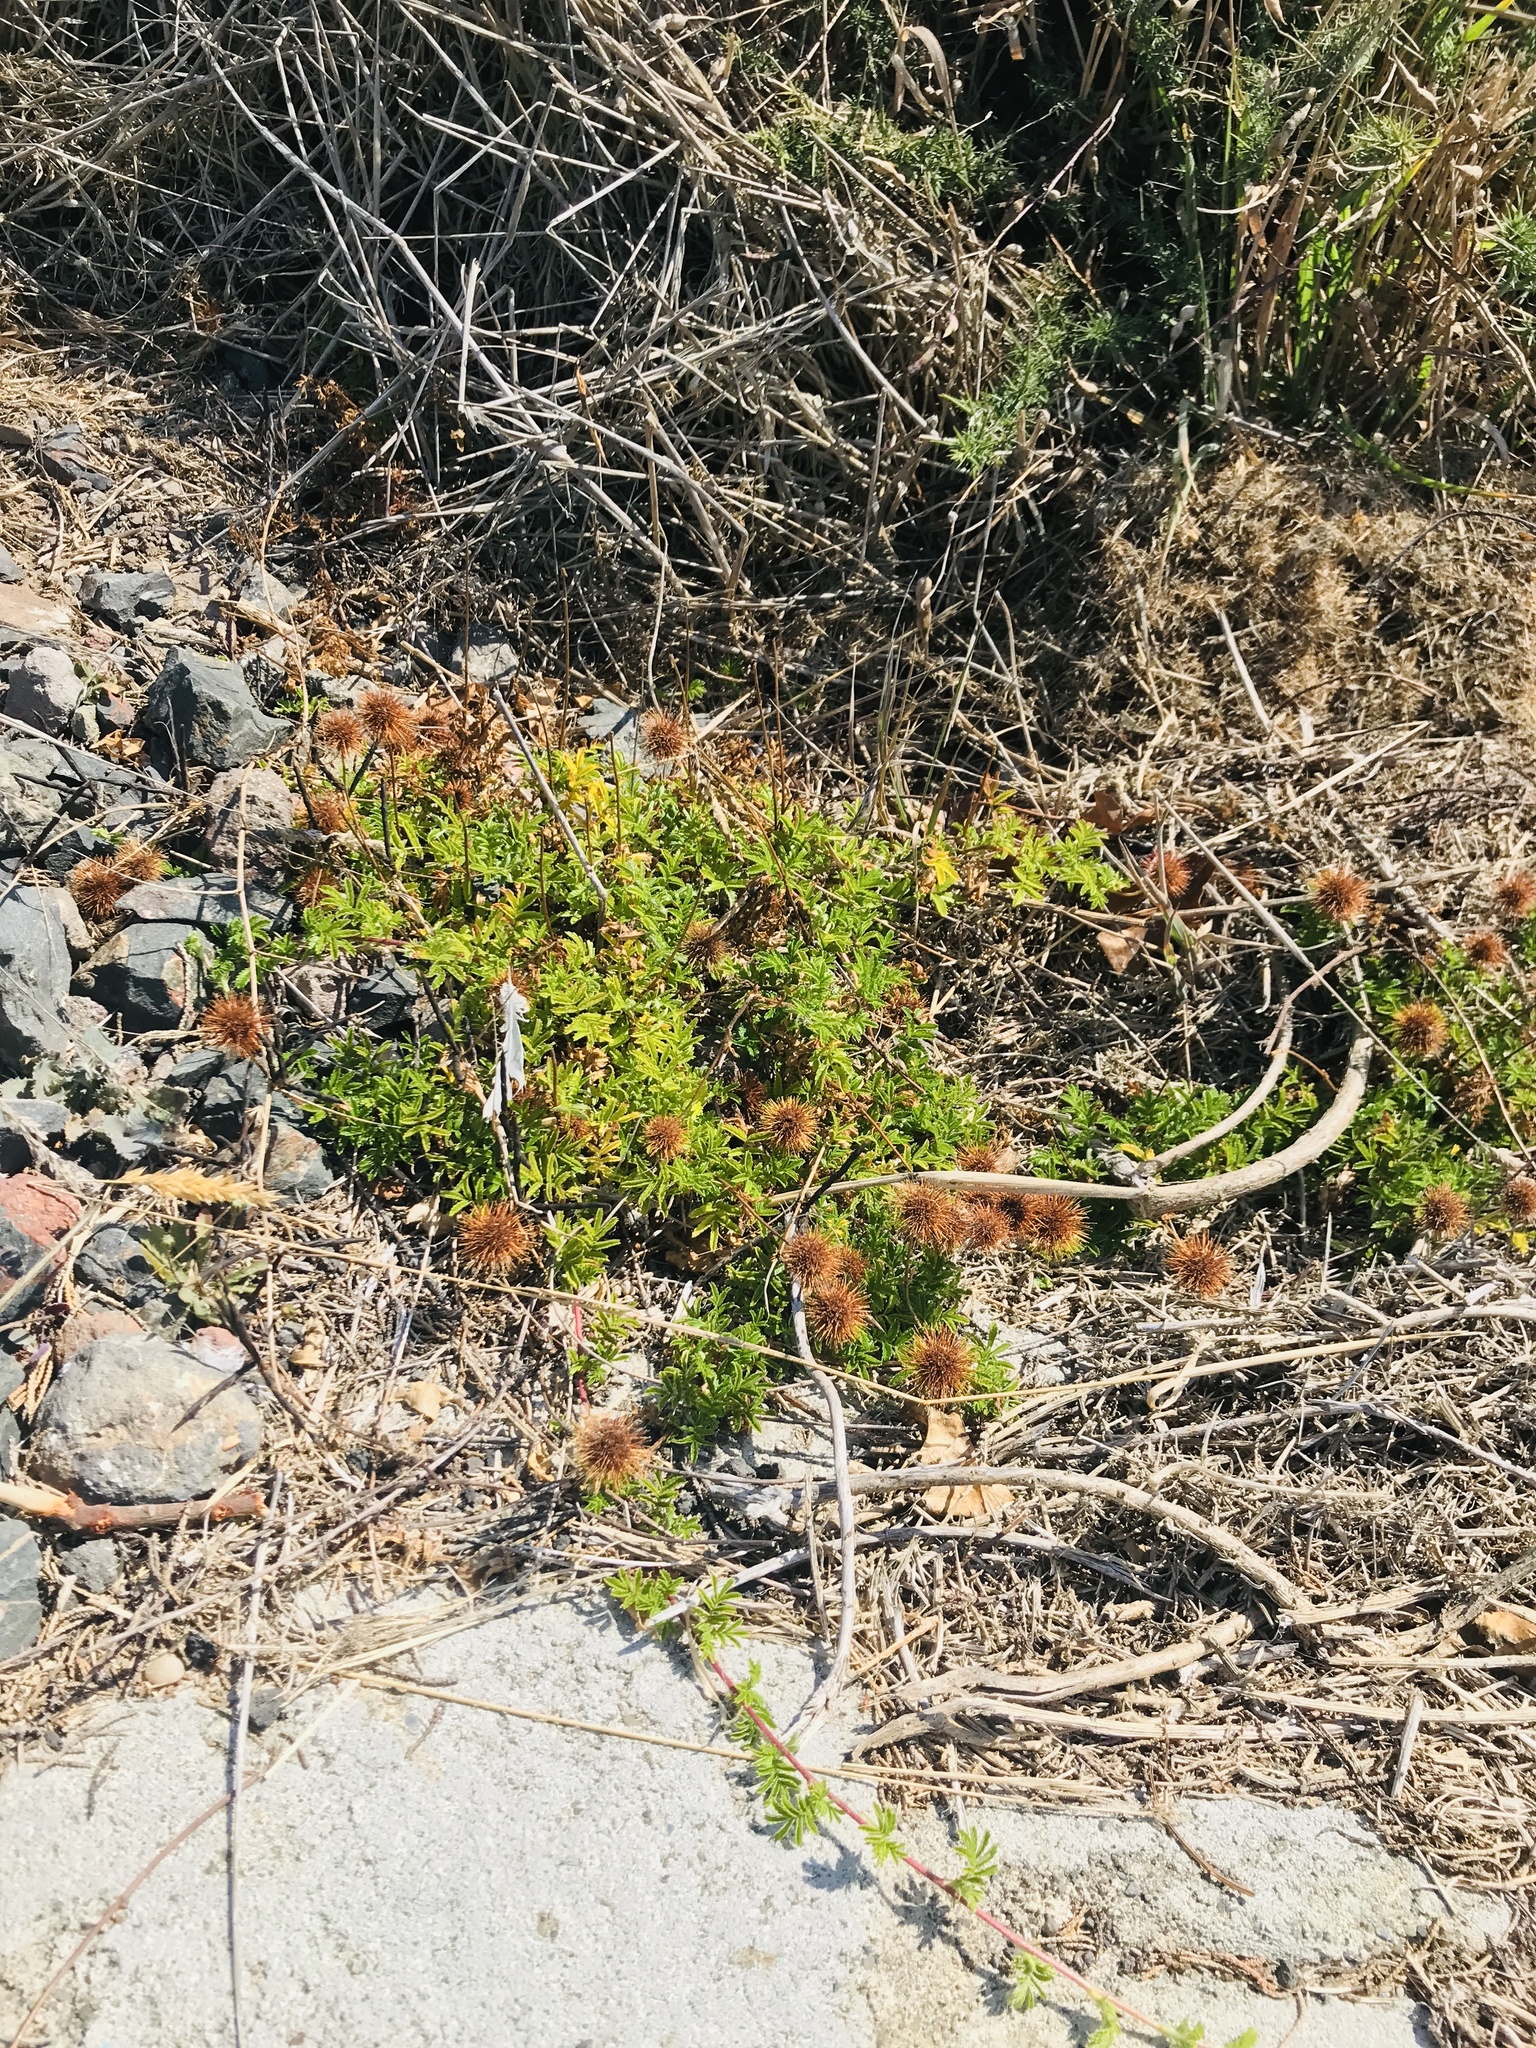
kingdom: Plantae
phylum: Tracheophyta
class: Magnoliopsida
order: Rosales
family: Rosaceae
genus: Acaena
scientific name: Acaena novae-zelandiae
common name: Pirri-pirri-bur
